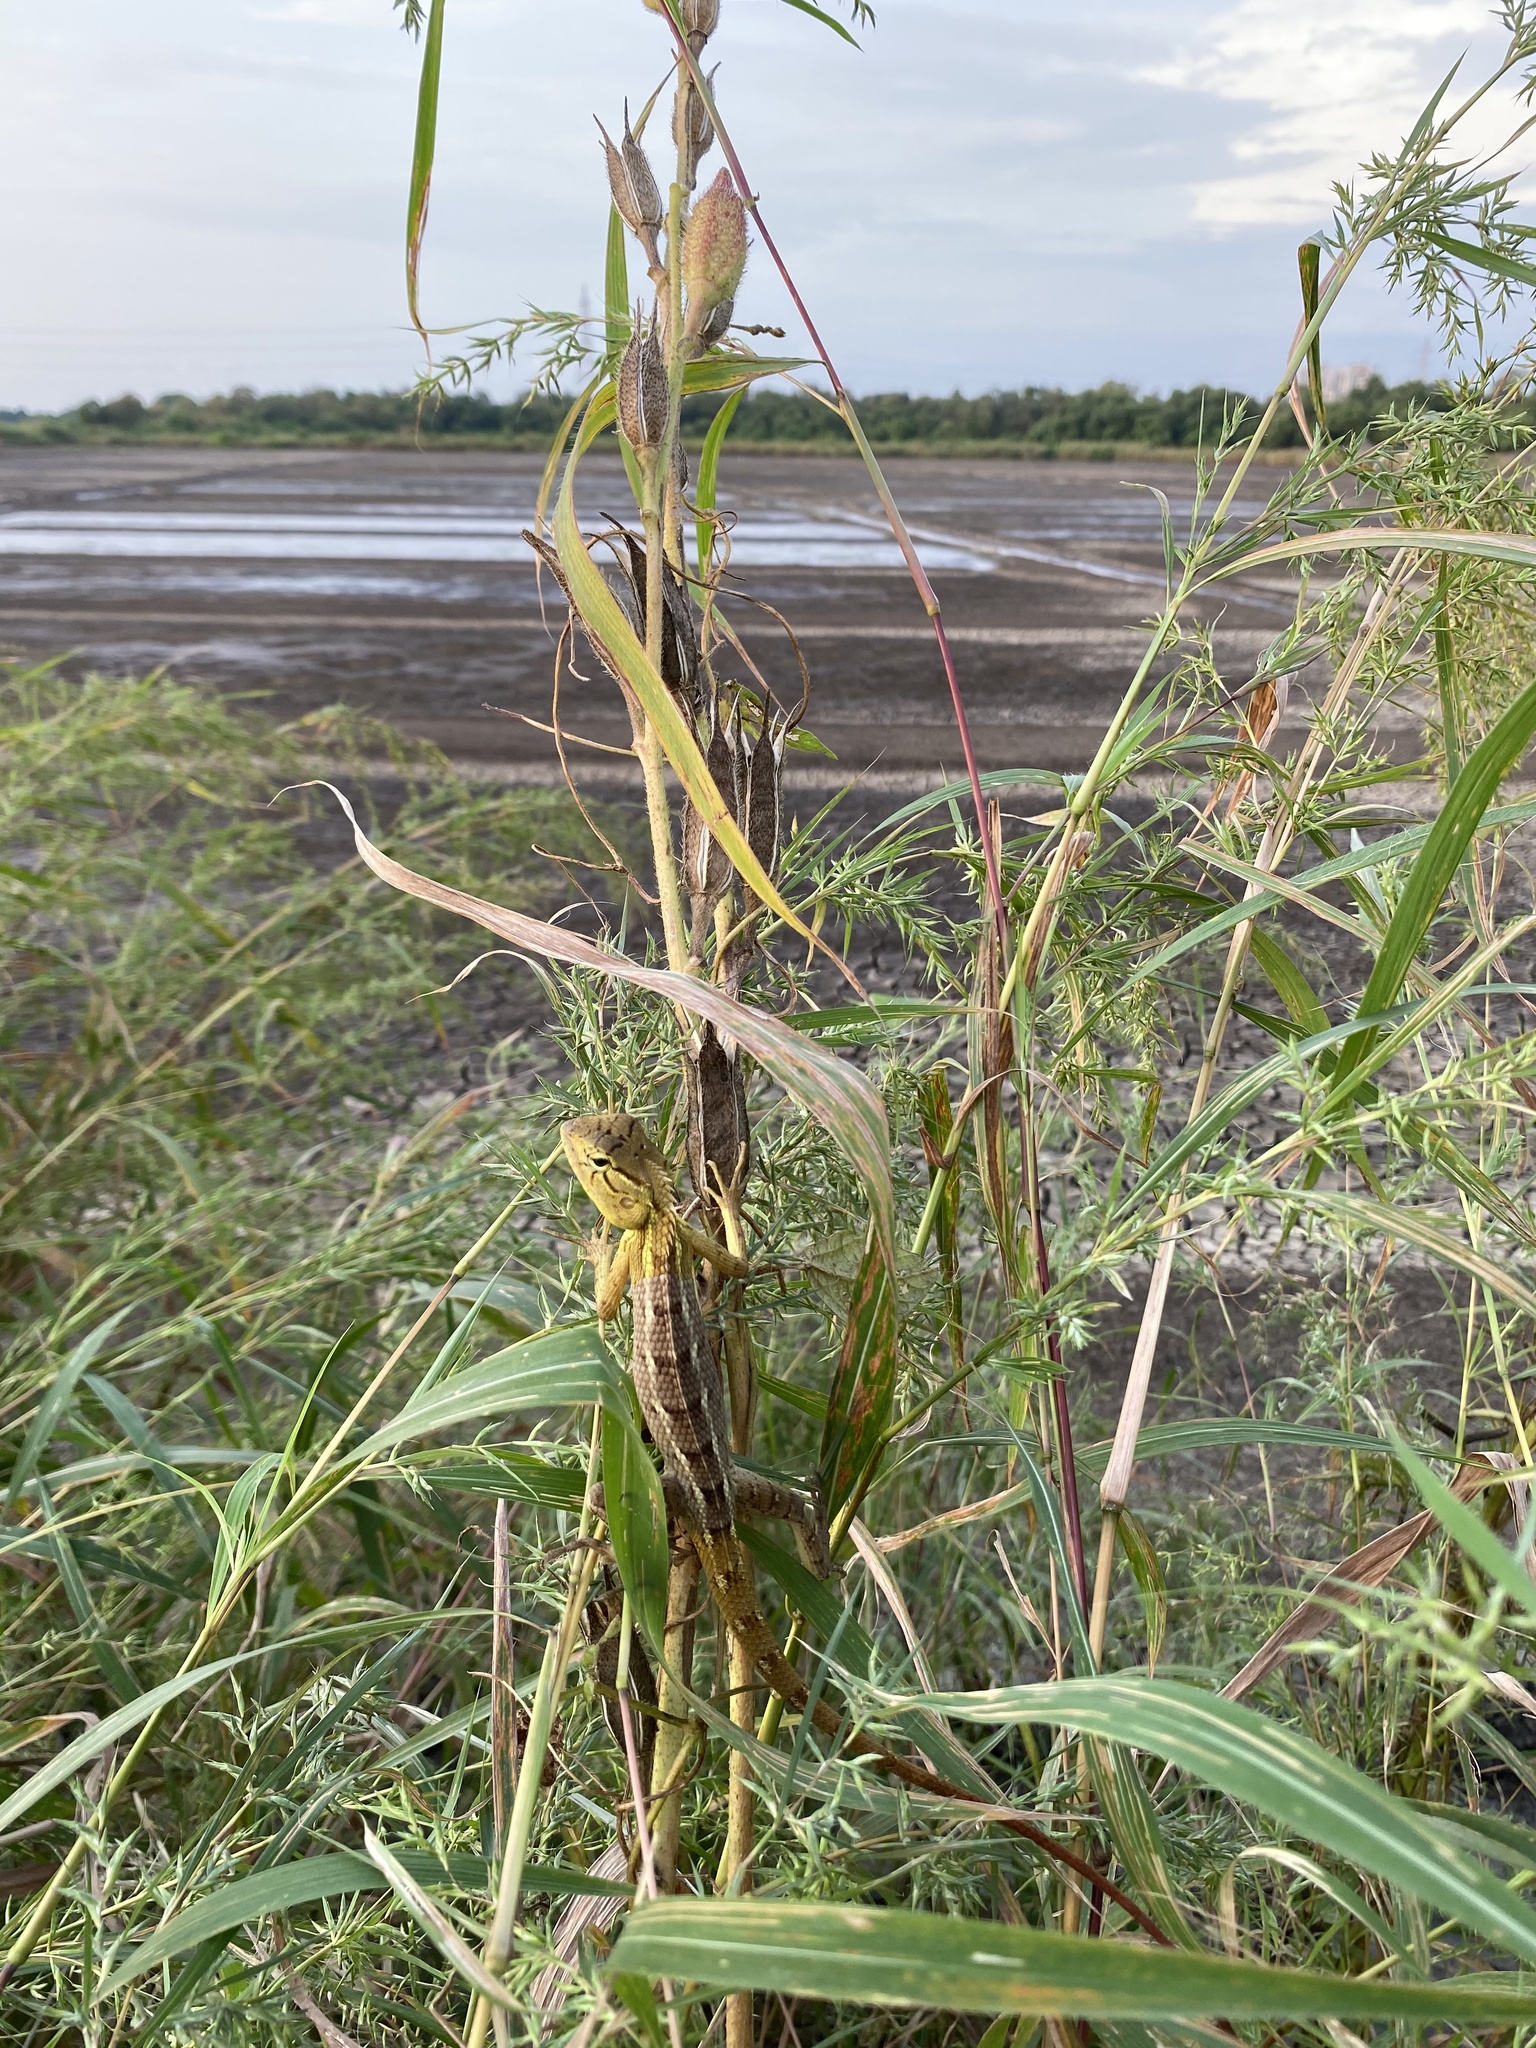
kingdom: Animalia
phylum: Chordata
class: Squamata
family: Agamidae
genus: Calotes
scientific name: Calotes versicolor
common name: Oriental garden lizard
